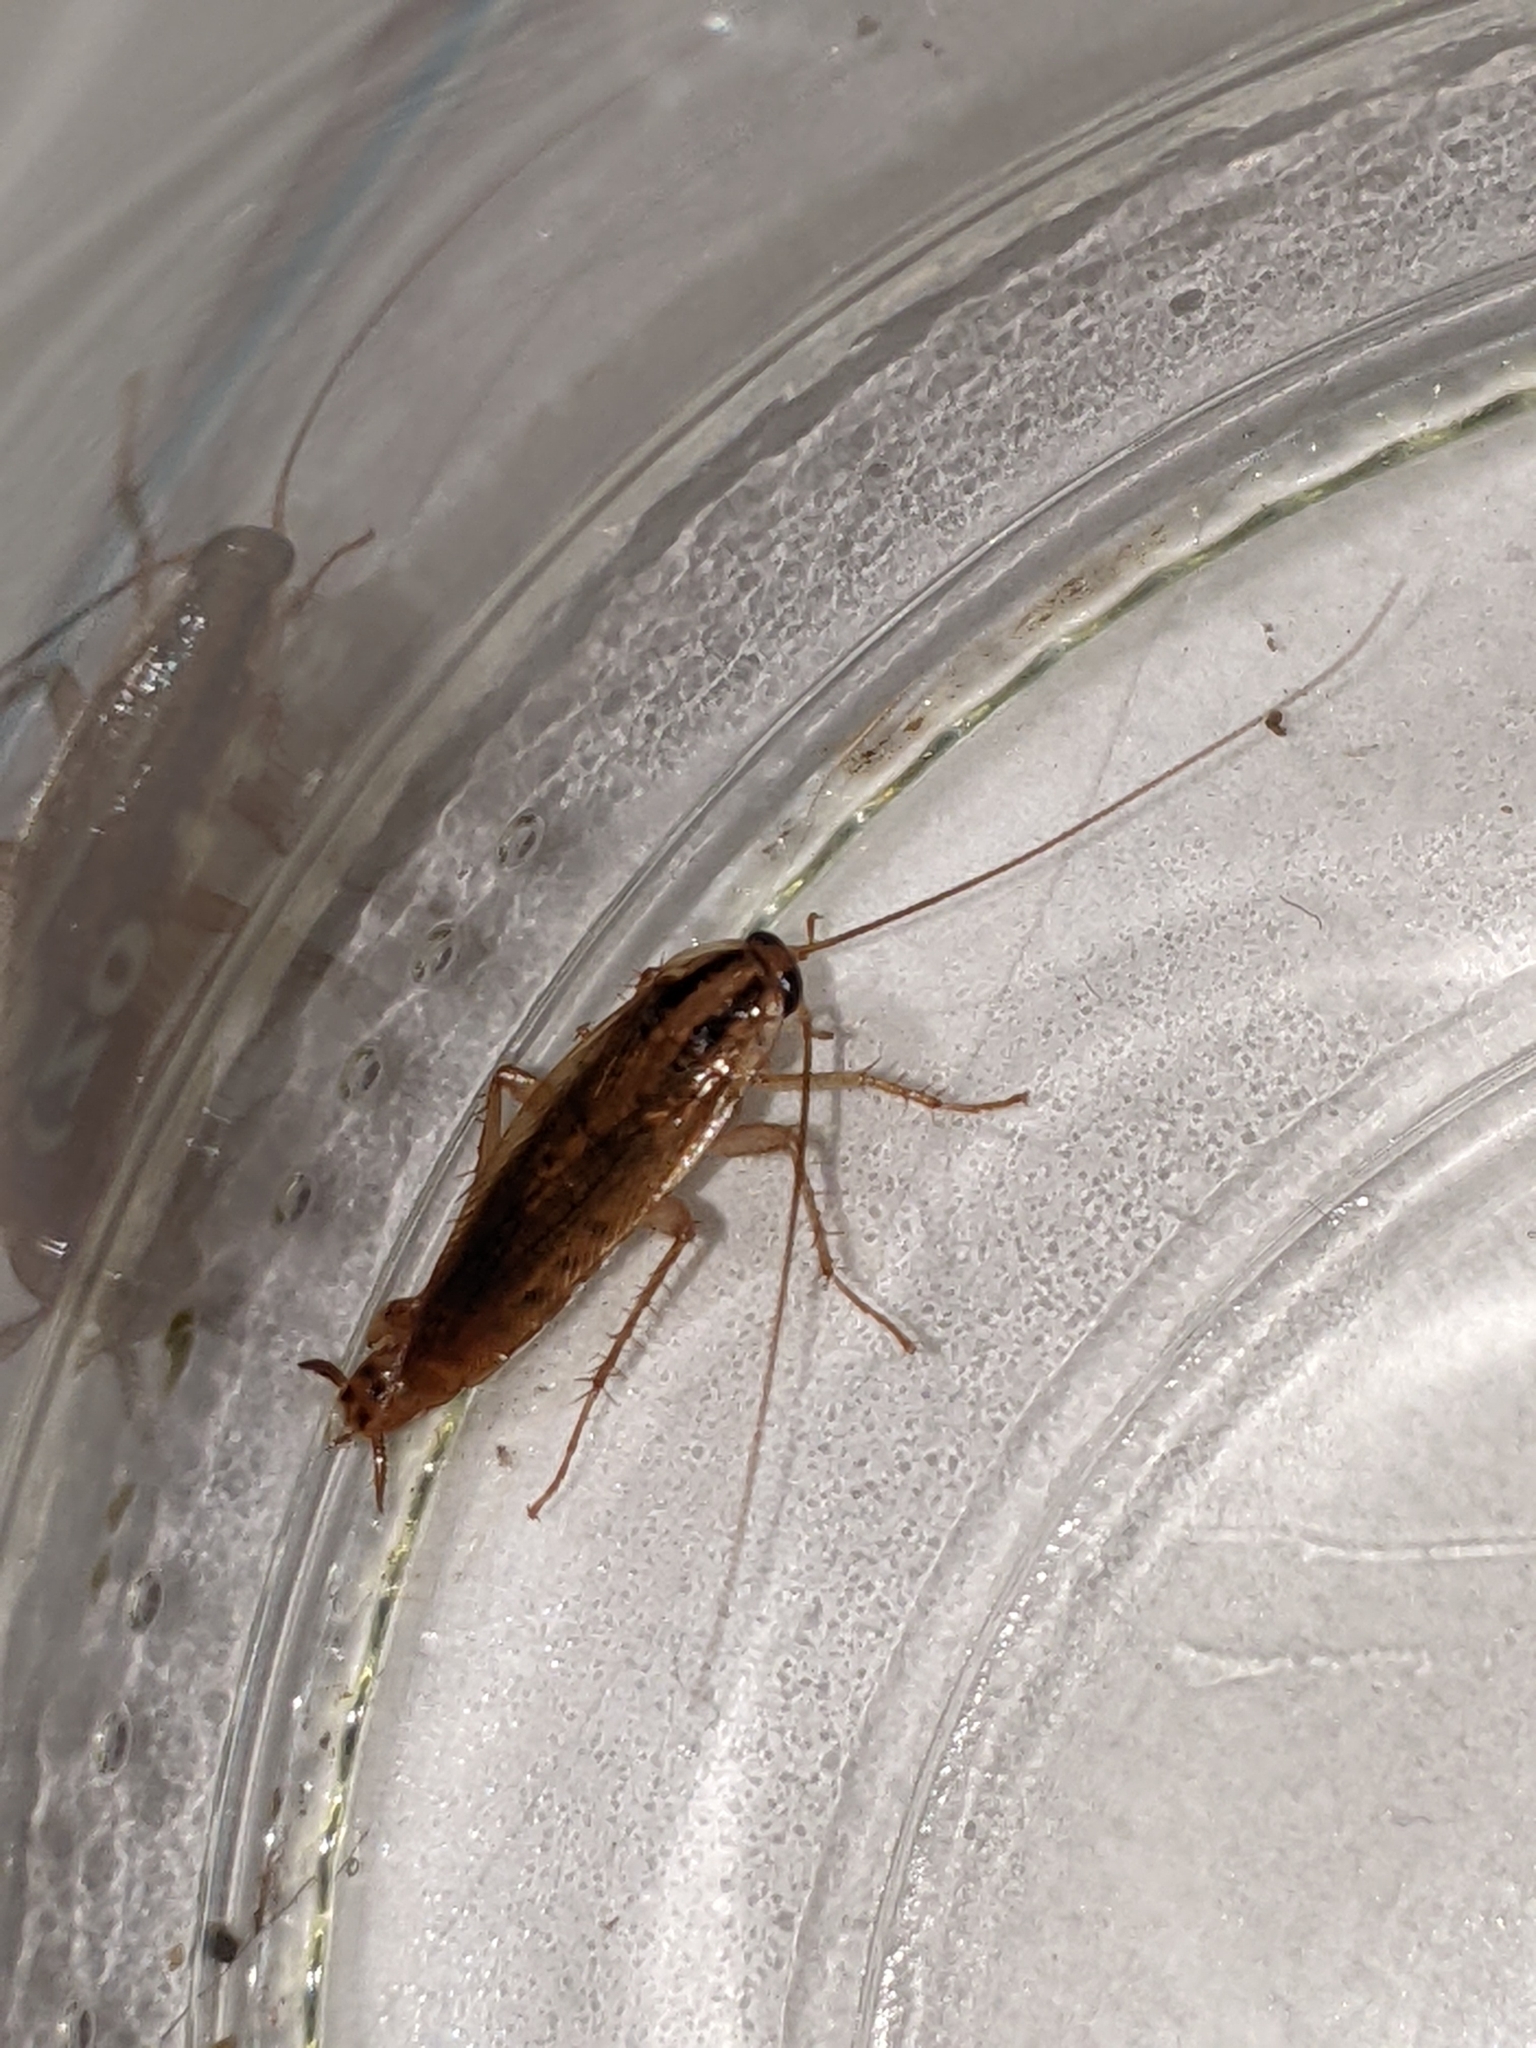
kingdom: Animalia
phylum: Arthropoda
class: Insecta
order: Blattodea
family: Ectobiidae
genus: Blattella
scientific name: Blattella germanica
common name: German cockroach
